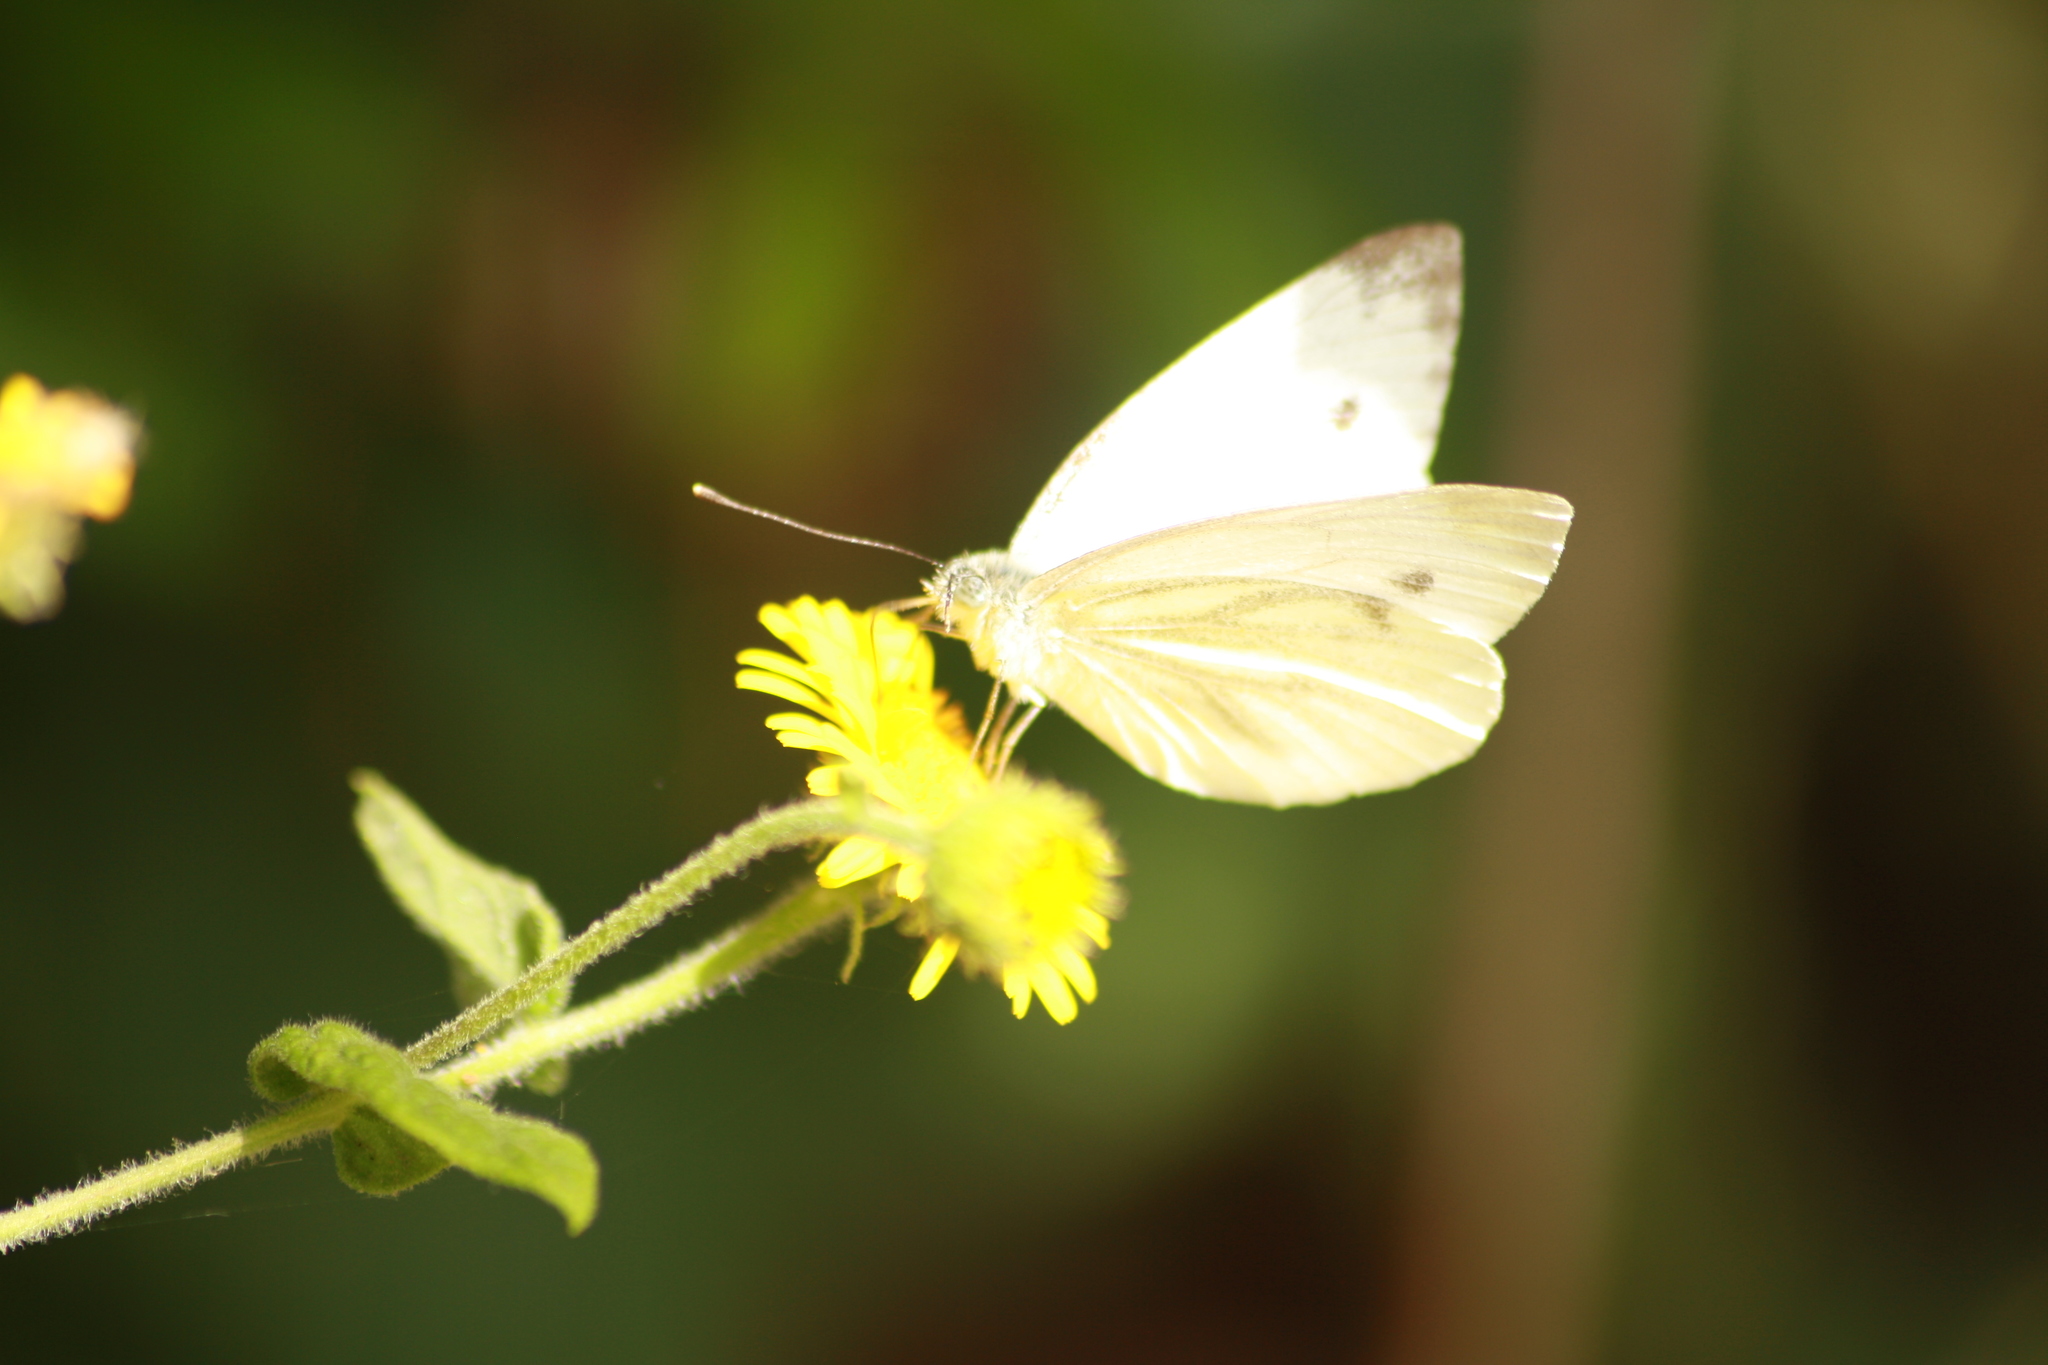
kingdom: Animalia
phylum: Arthropoda
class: Insecta
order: Lepidoptera
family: Pieridae
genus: Pieris
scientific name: Pieris napi
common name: Green-veined white
